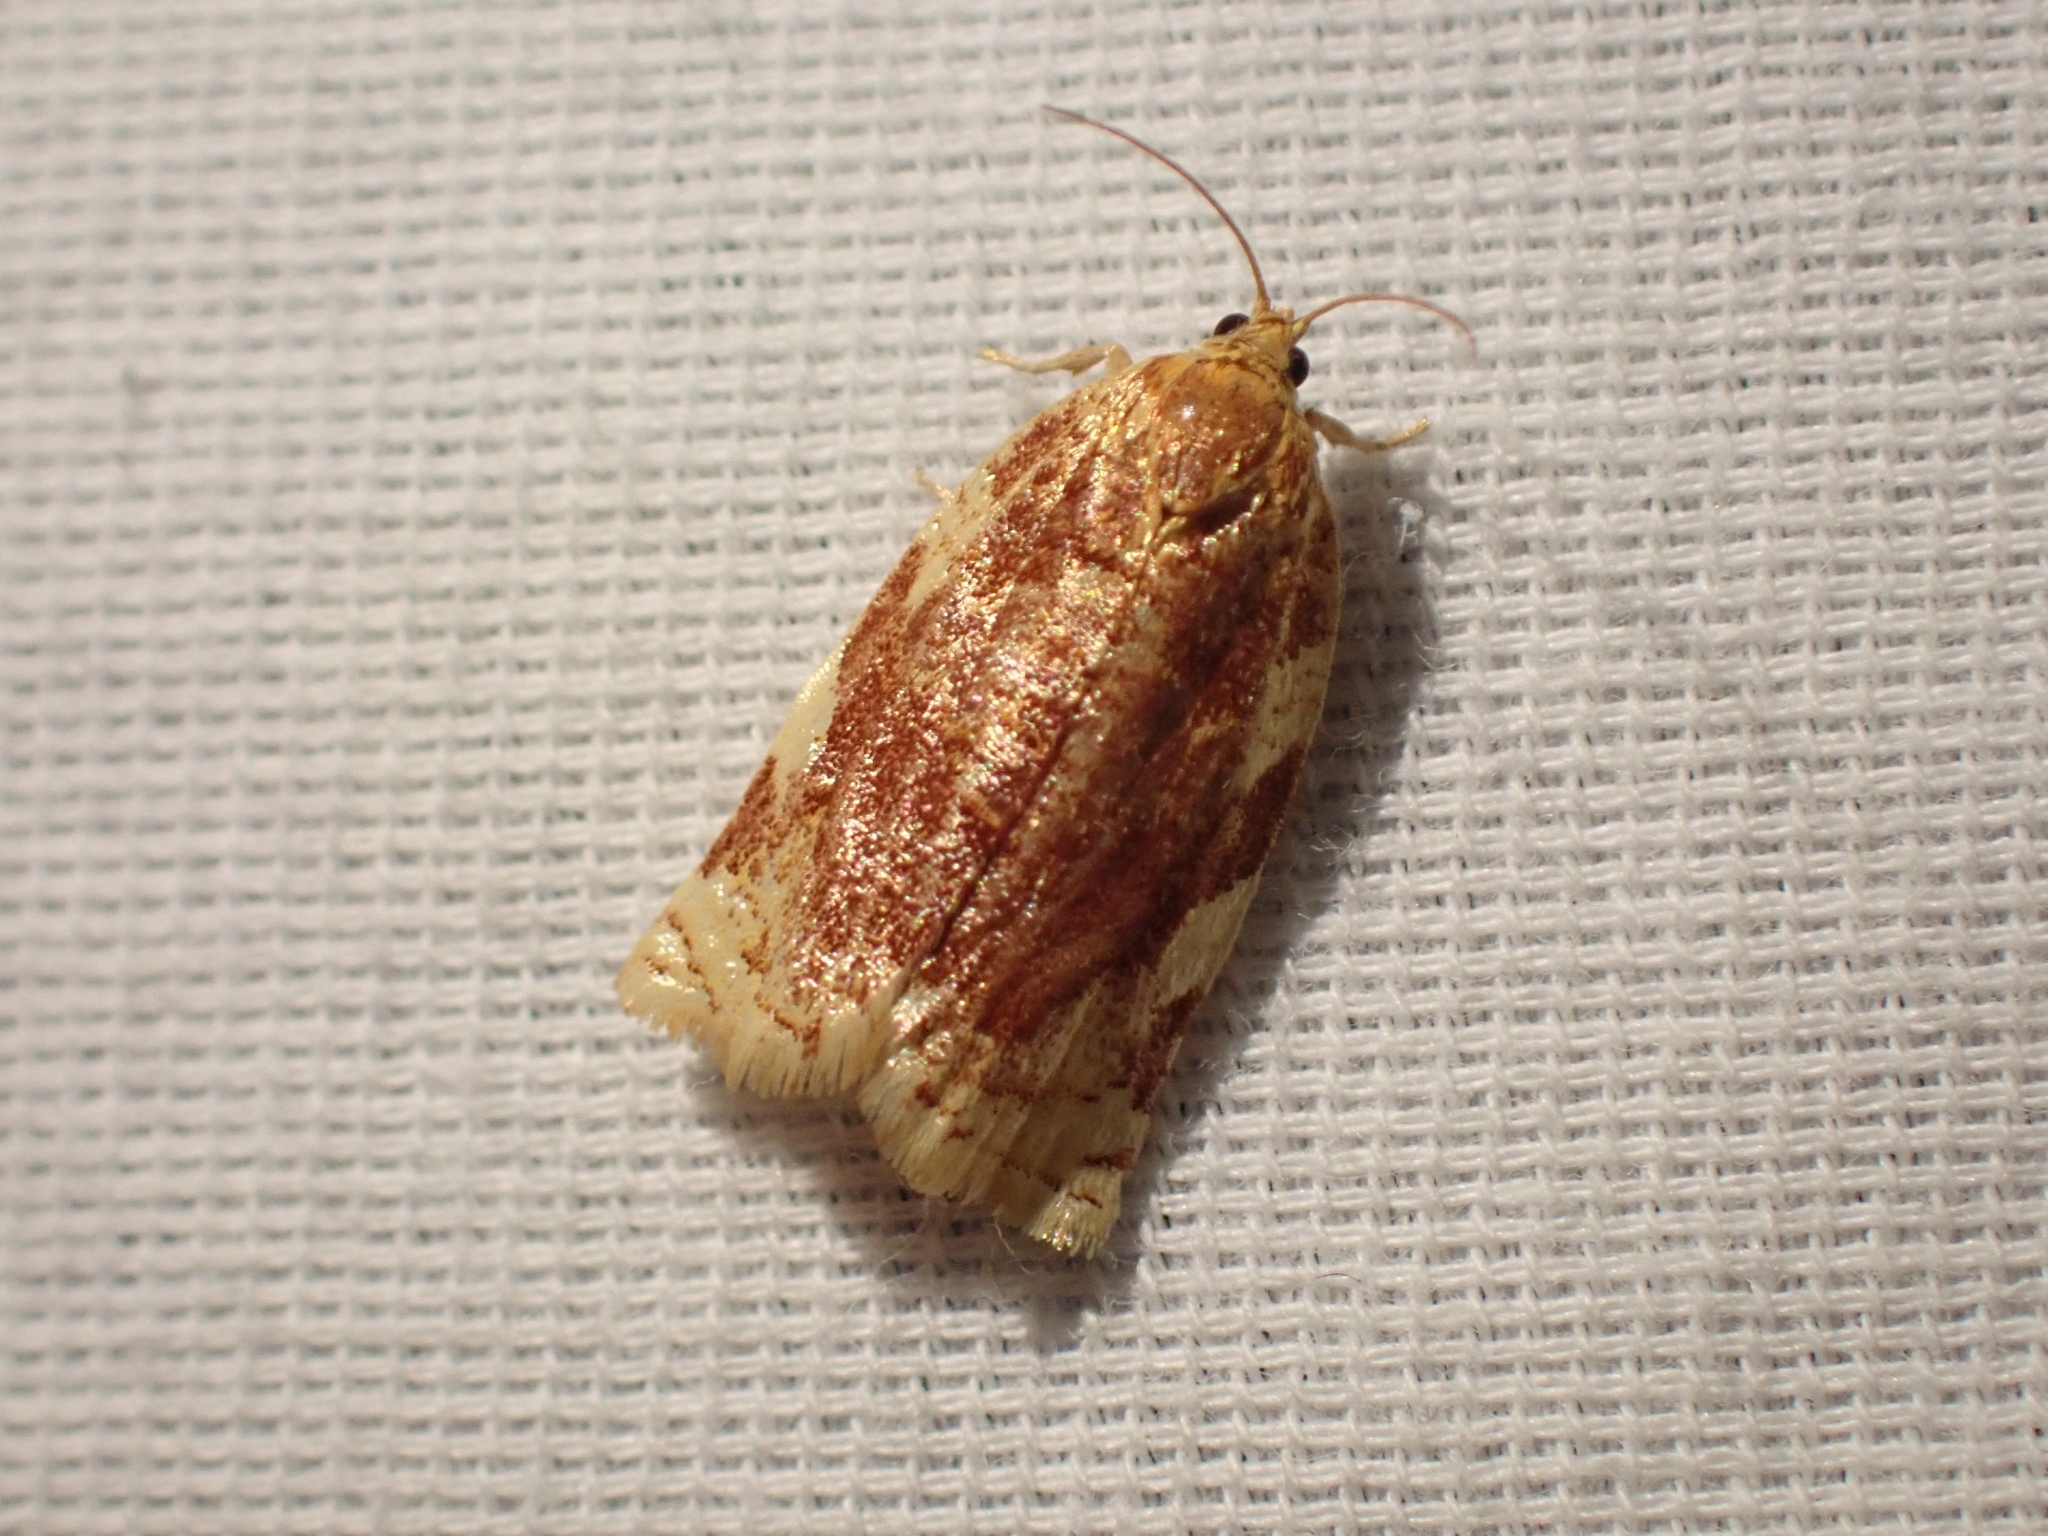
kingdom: Animalia
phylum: Arthropoda
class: Insecta
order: Lepidoptera
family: Tortricidae
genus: Archips
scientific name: Archips argyrospila
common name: Fruit-tree leafroller moth
